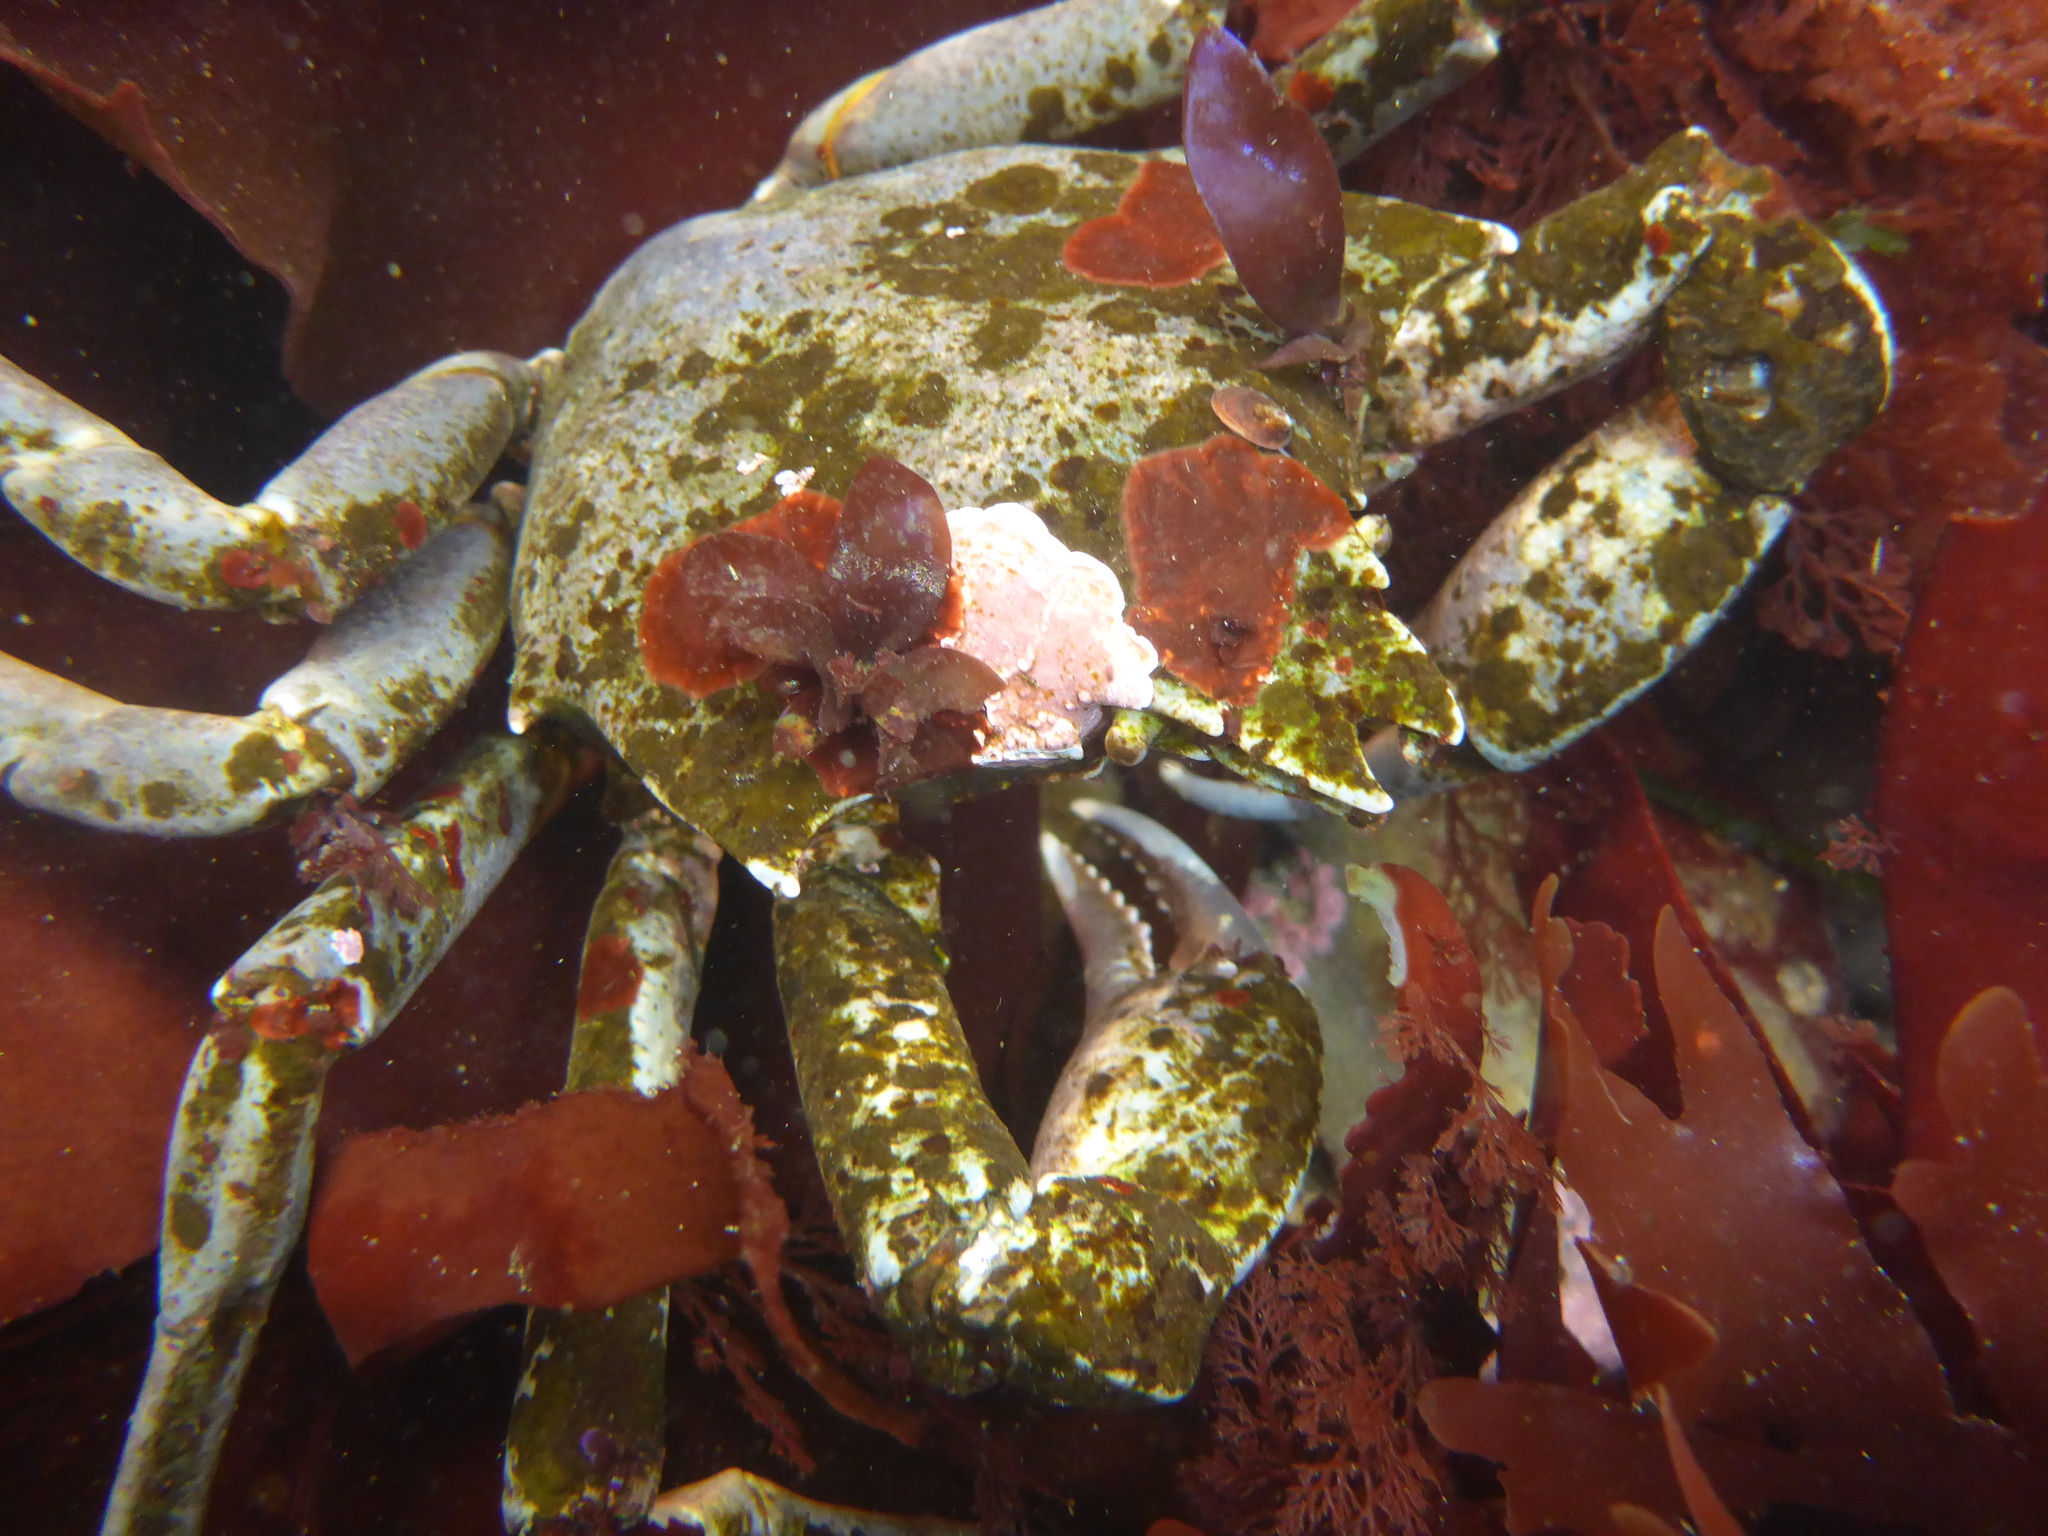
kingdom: Animalia
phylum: Arthropoda
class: Malacostraca
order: Decapoda
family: Epialtidae
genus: Pugettia
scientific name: Pugettia producta
